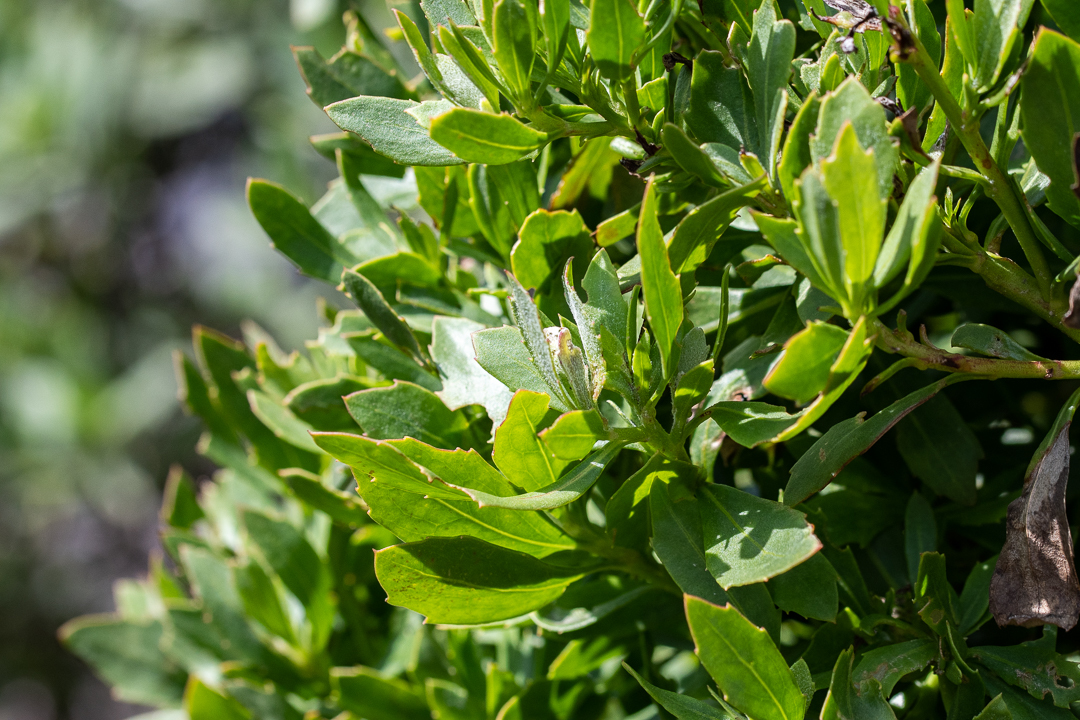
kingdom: Plantae
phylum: Tracheophyta
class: Magnoliopsida
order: Asterales
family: Asteraceae
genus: Osteospermum
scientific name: Osteospermum moniliferum
